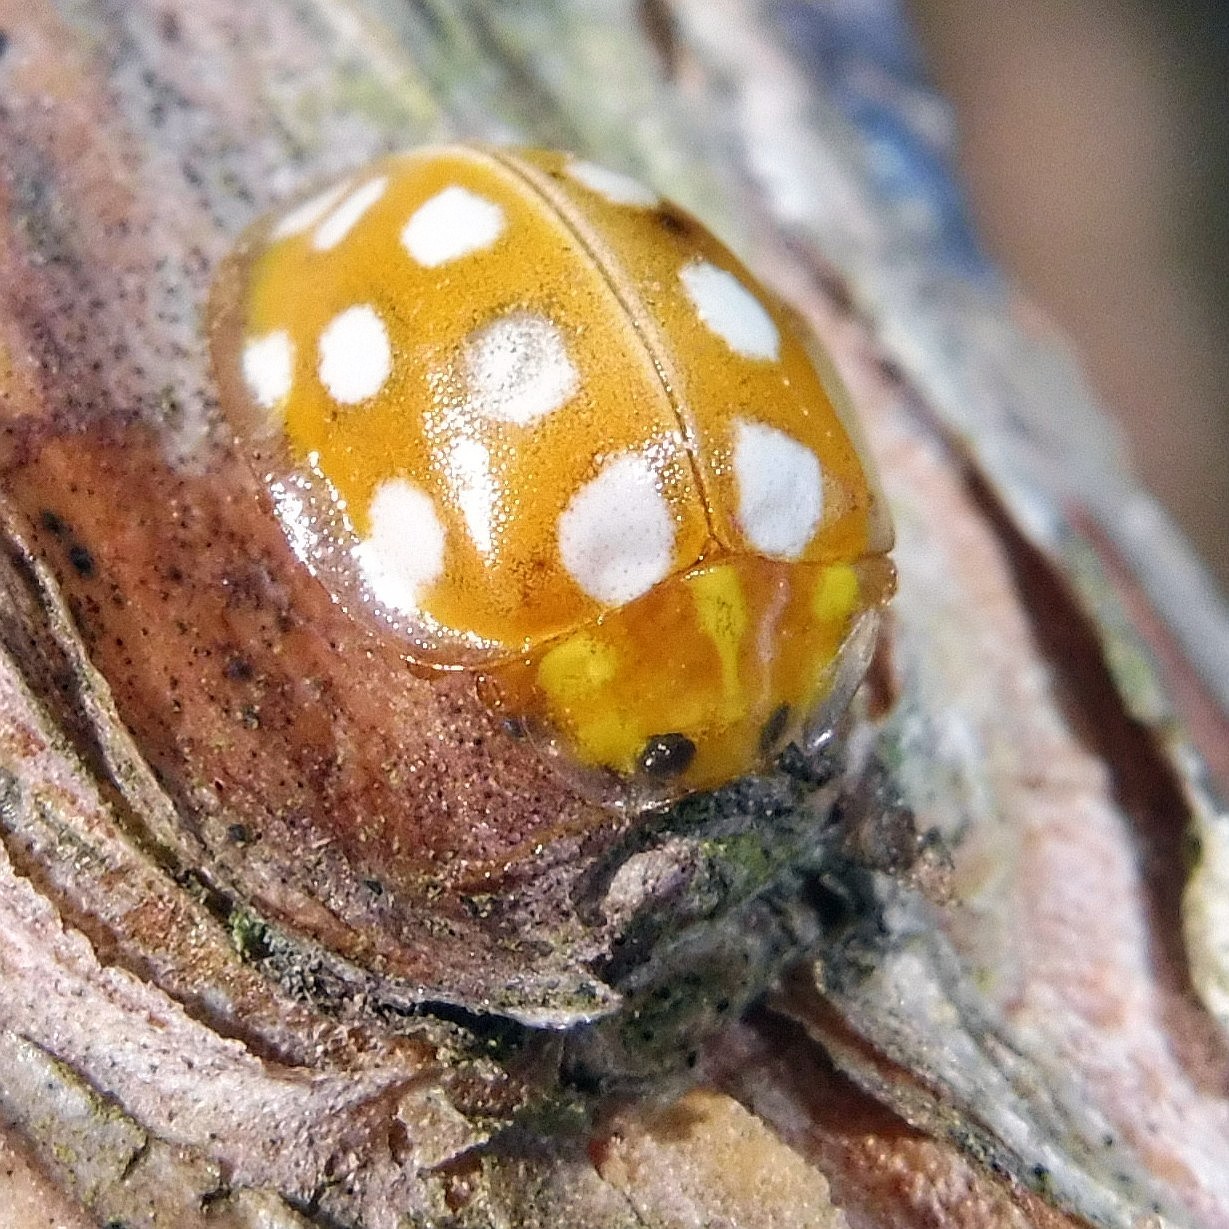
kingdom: Animalia
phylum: Arthropoda
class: Insecta
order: Coleoptera
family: Coccinellidae
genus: Halyzia
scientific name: Halyzia sedecimguttata
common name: Orange ladybird
